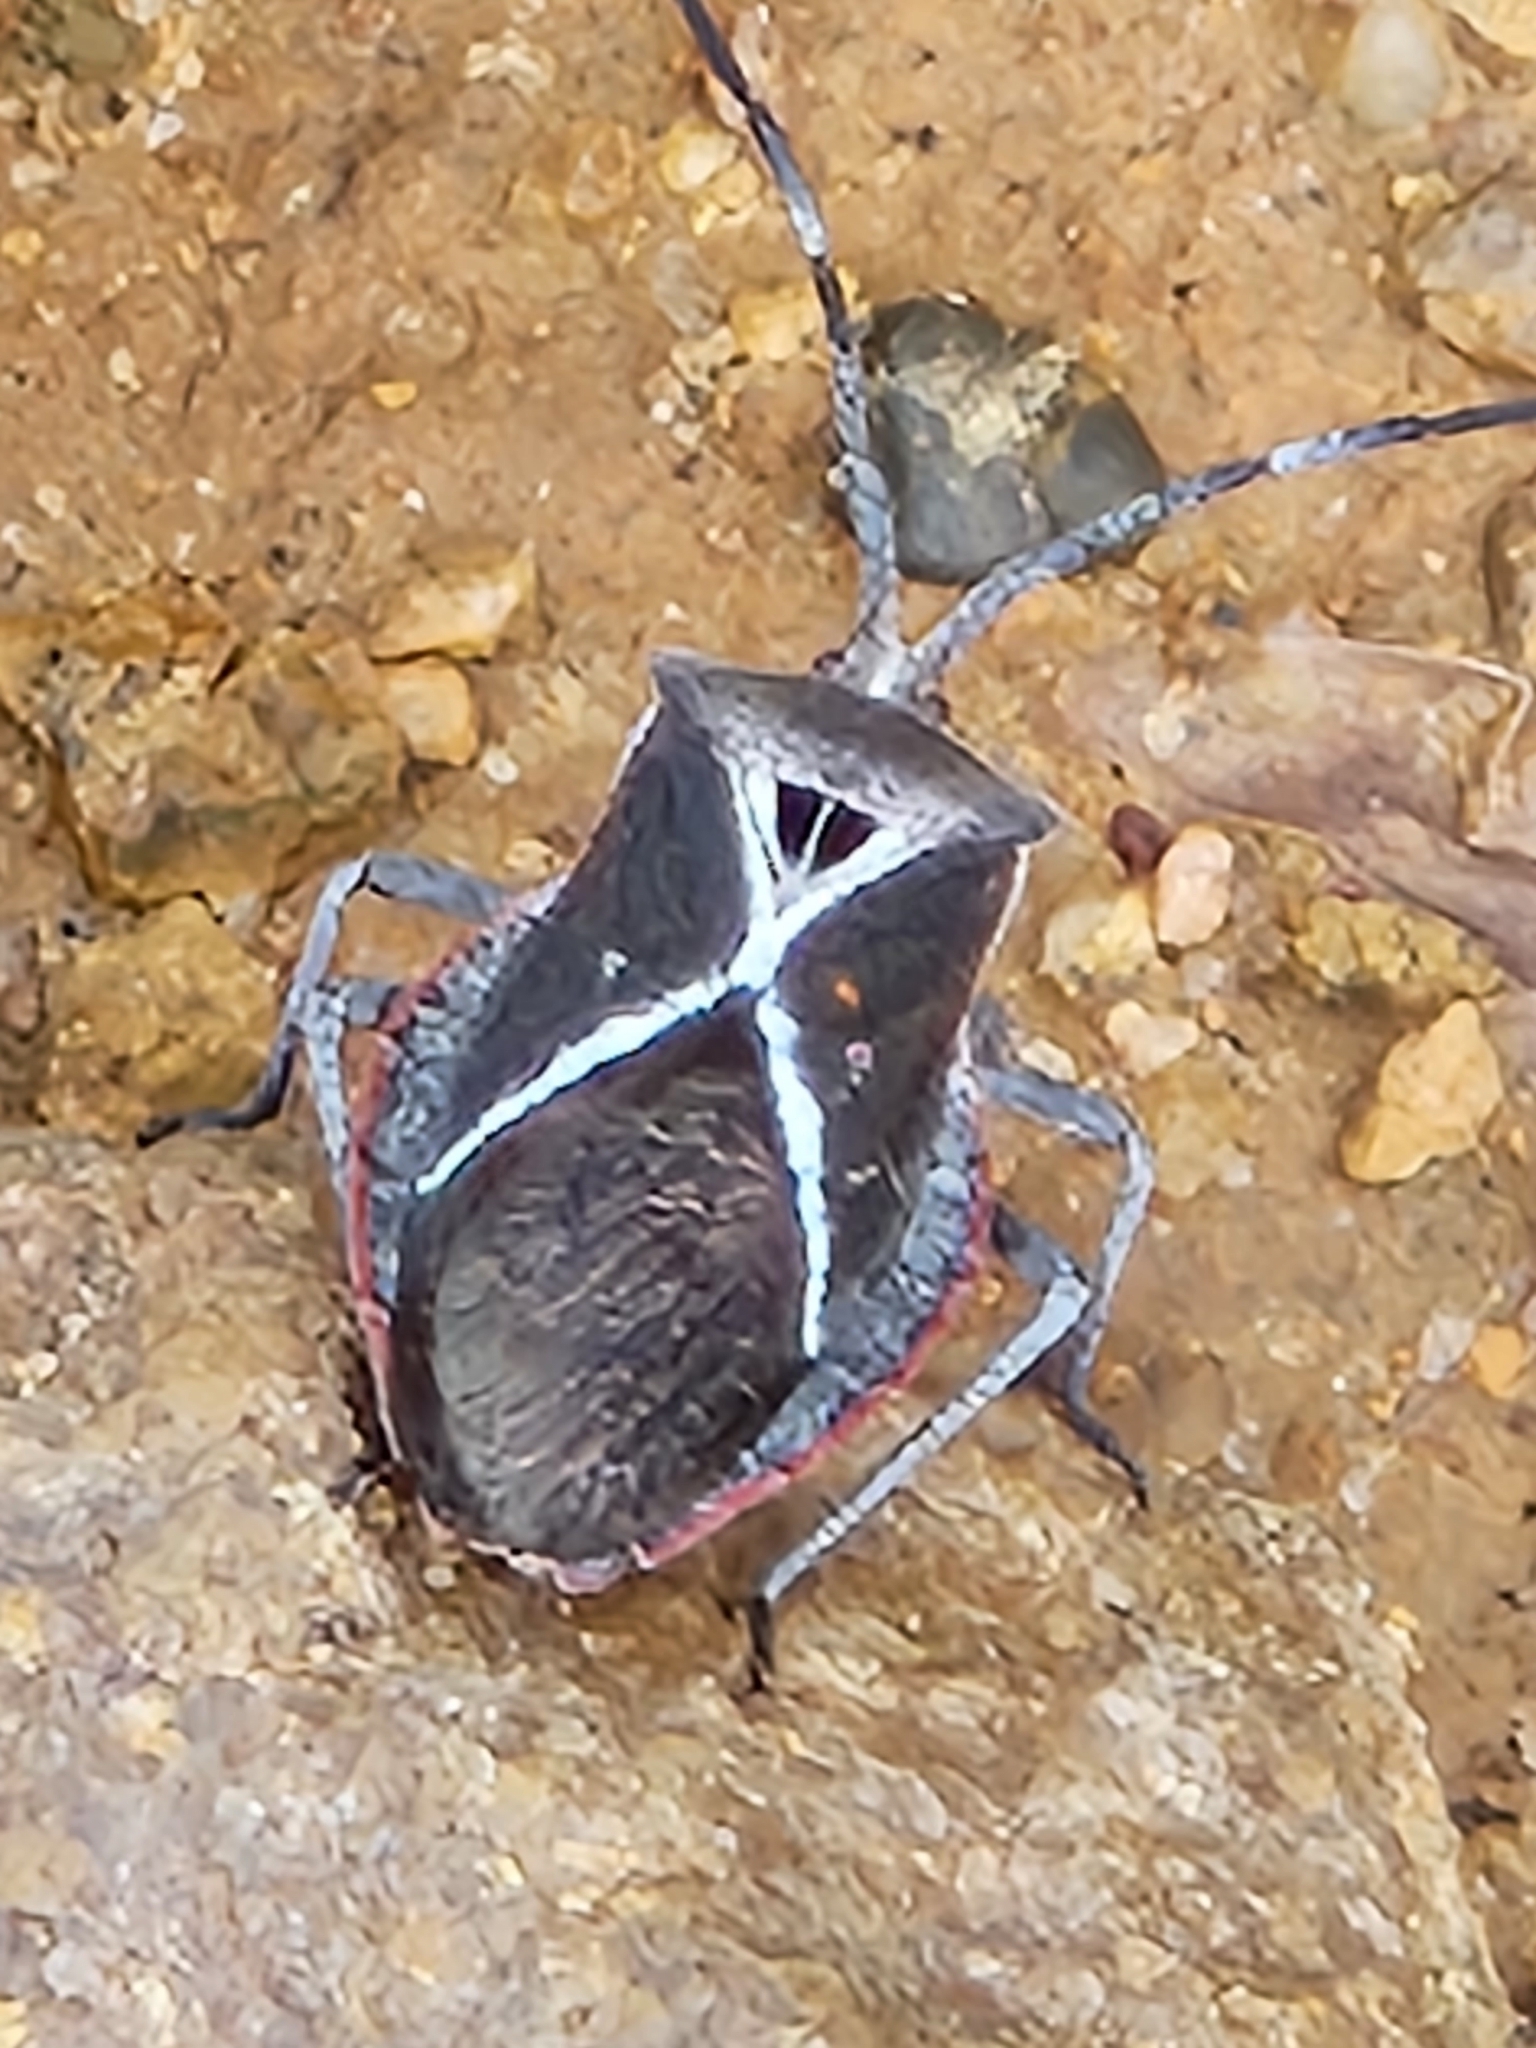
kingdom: Animalia
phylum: Arthropoda
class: Insecta
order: Hemiptera
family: Coreidae
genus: Eubule
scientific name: Eubule scutellata
